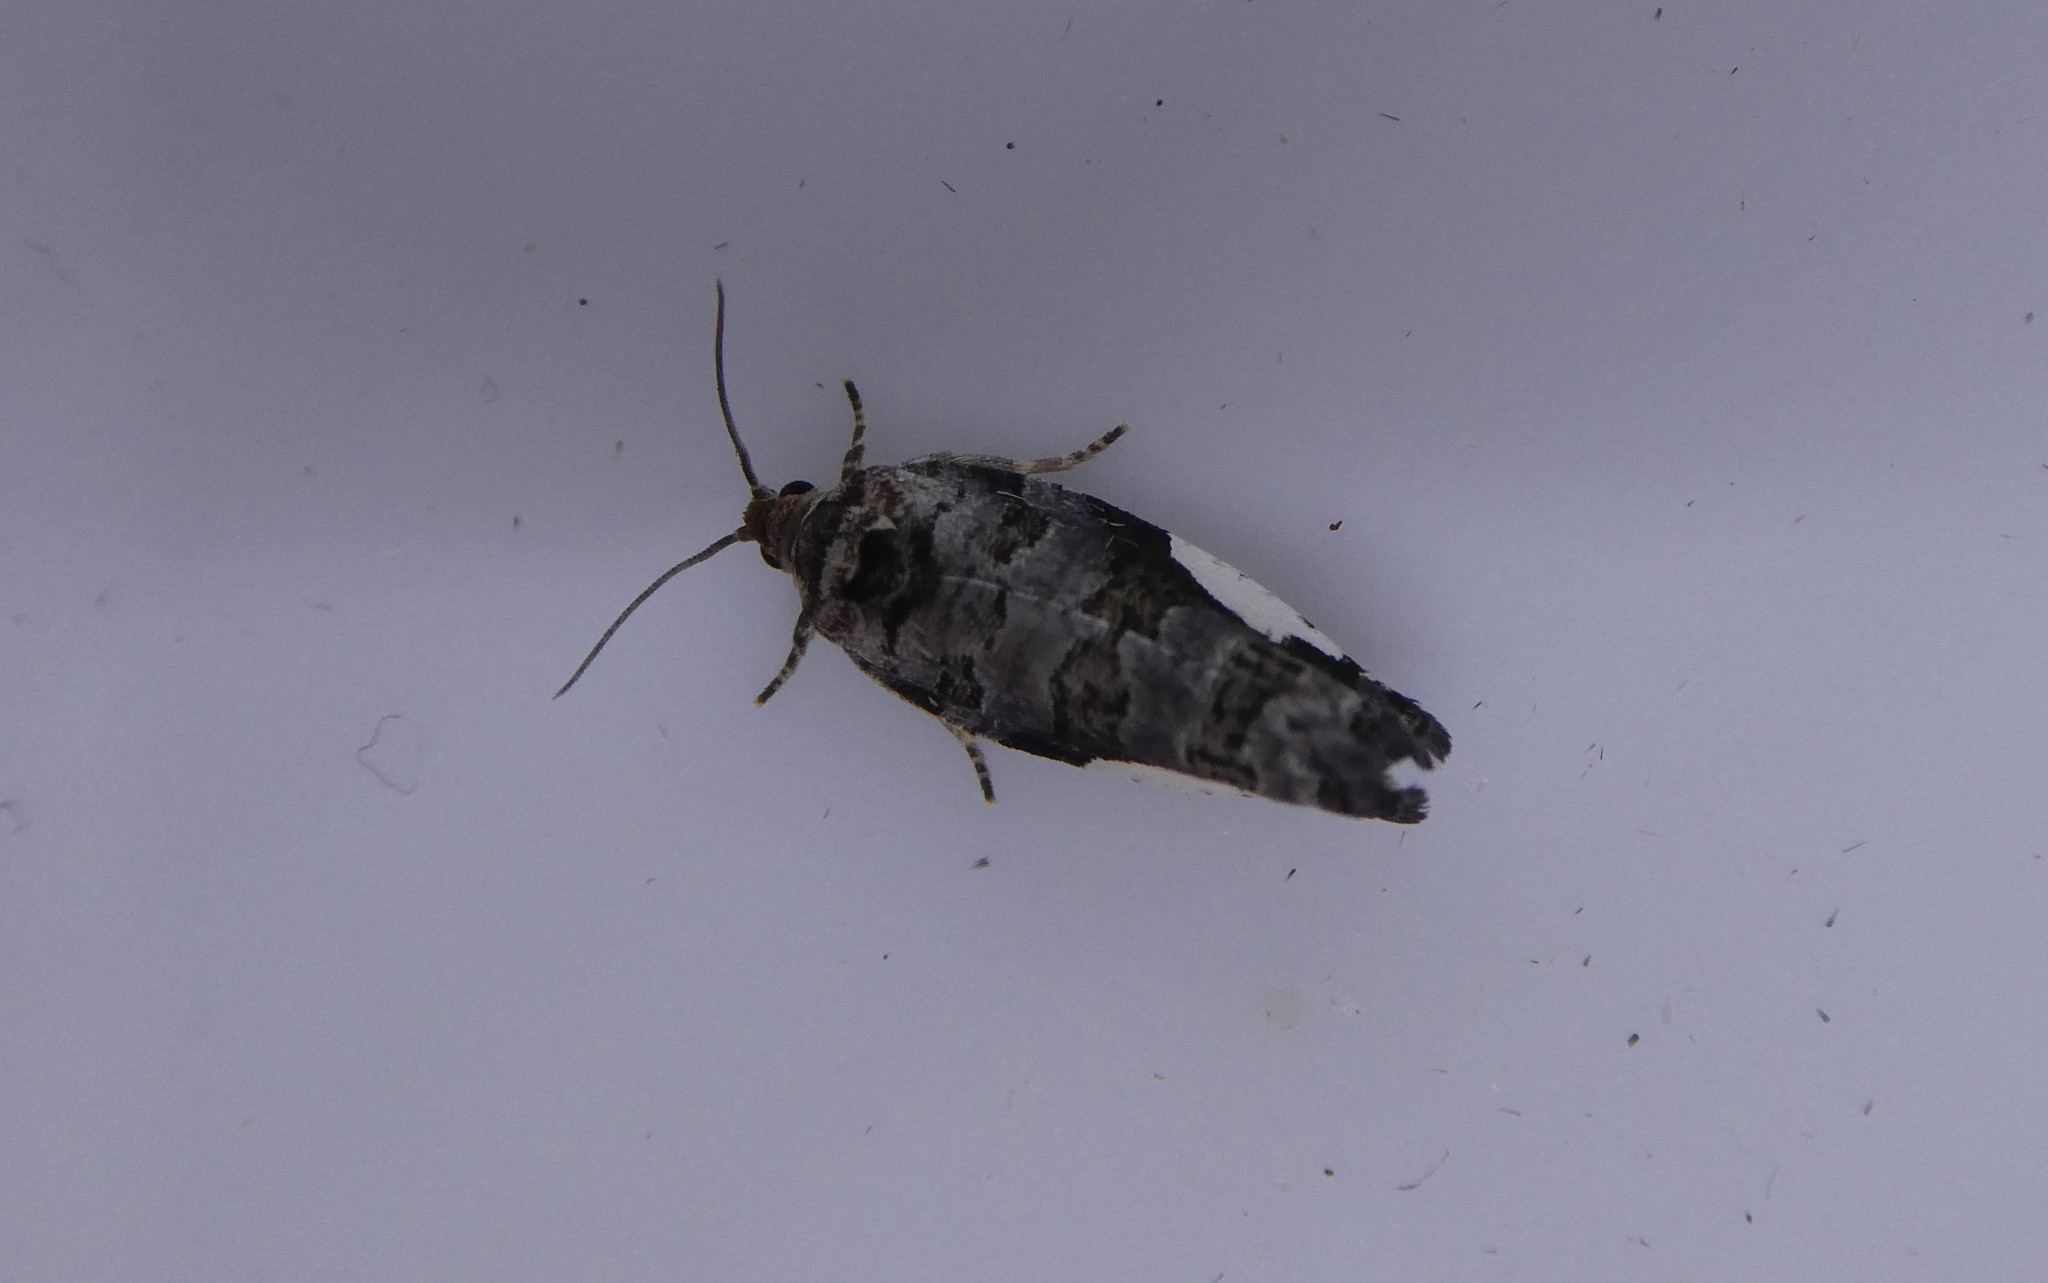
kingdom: Animalia
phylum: Arthropoda
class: Insecta
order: Lepidoptera
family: Tortricidae
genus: Hedya
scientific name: Hedya chionosema
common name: White-spotted hedya moth
